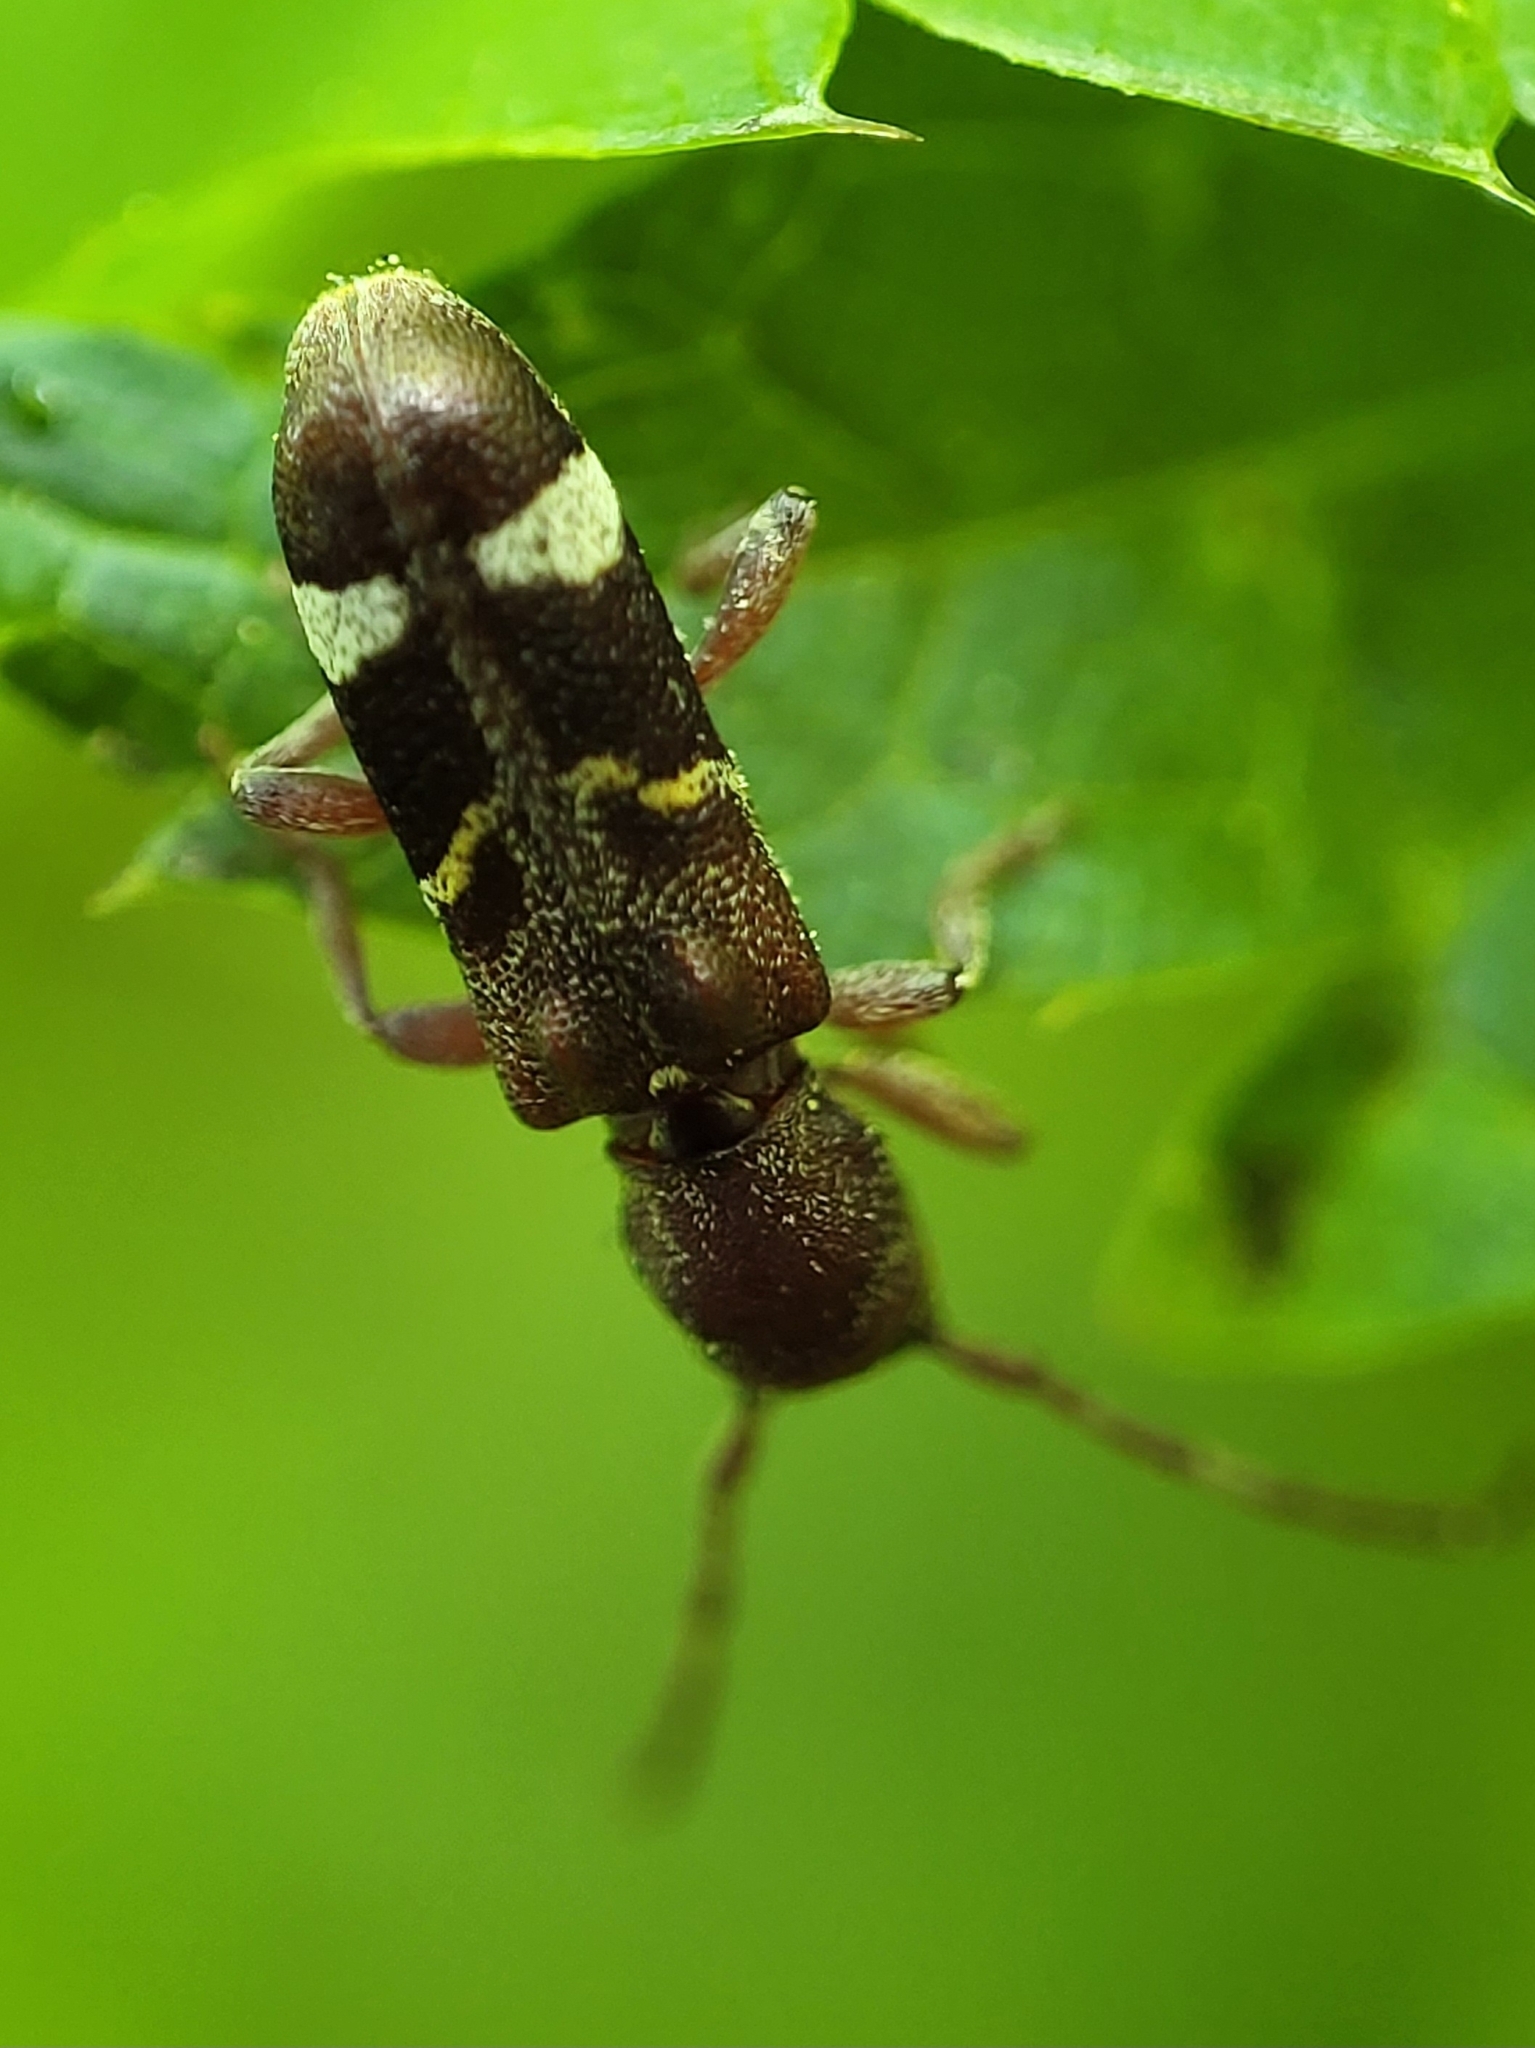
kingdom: Animalia
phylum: Arthropoda
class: Insecta
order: Coleoptera
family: Cerambycidae
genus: Psenocerus
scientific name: Psenocerus supernotatus
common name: Currant-tip borer
